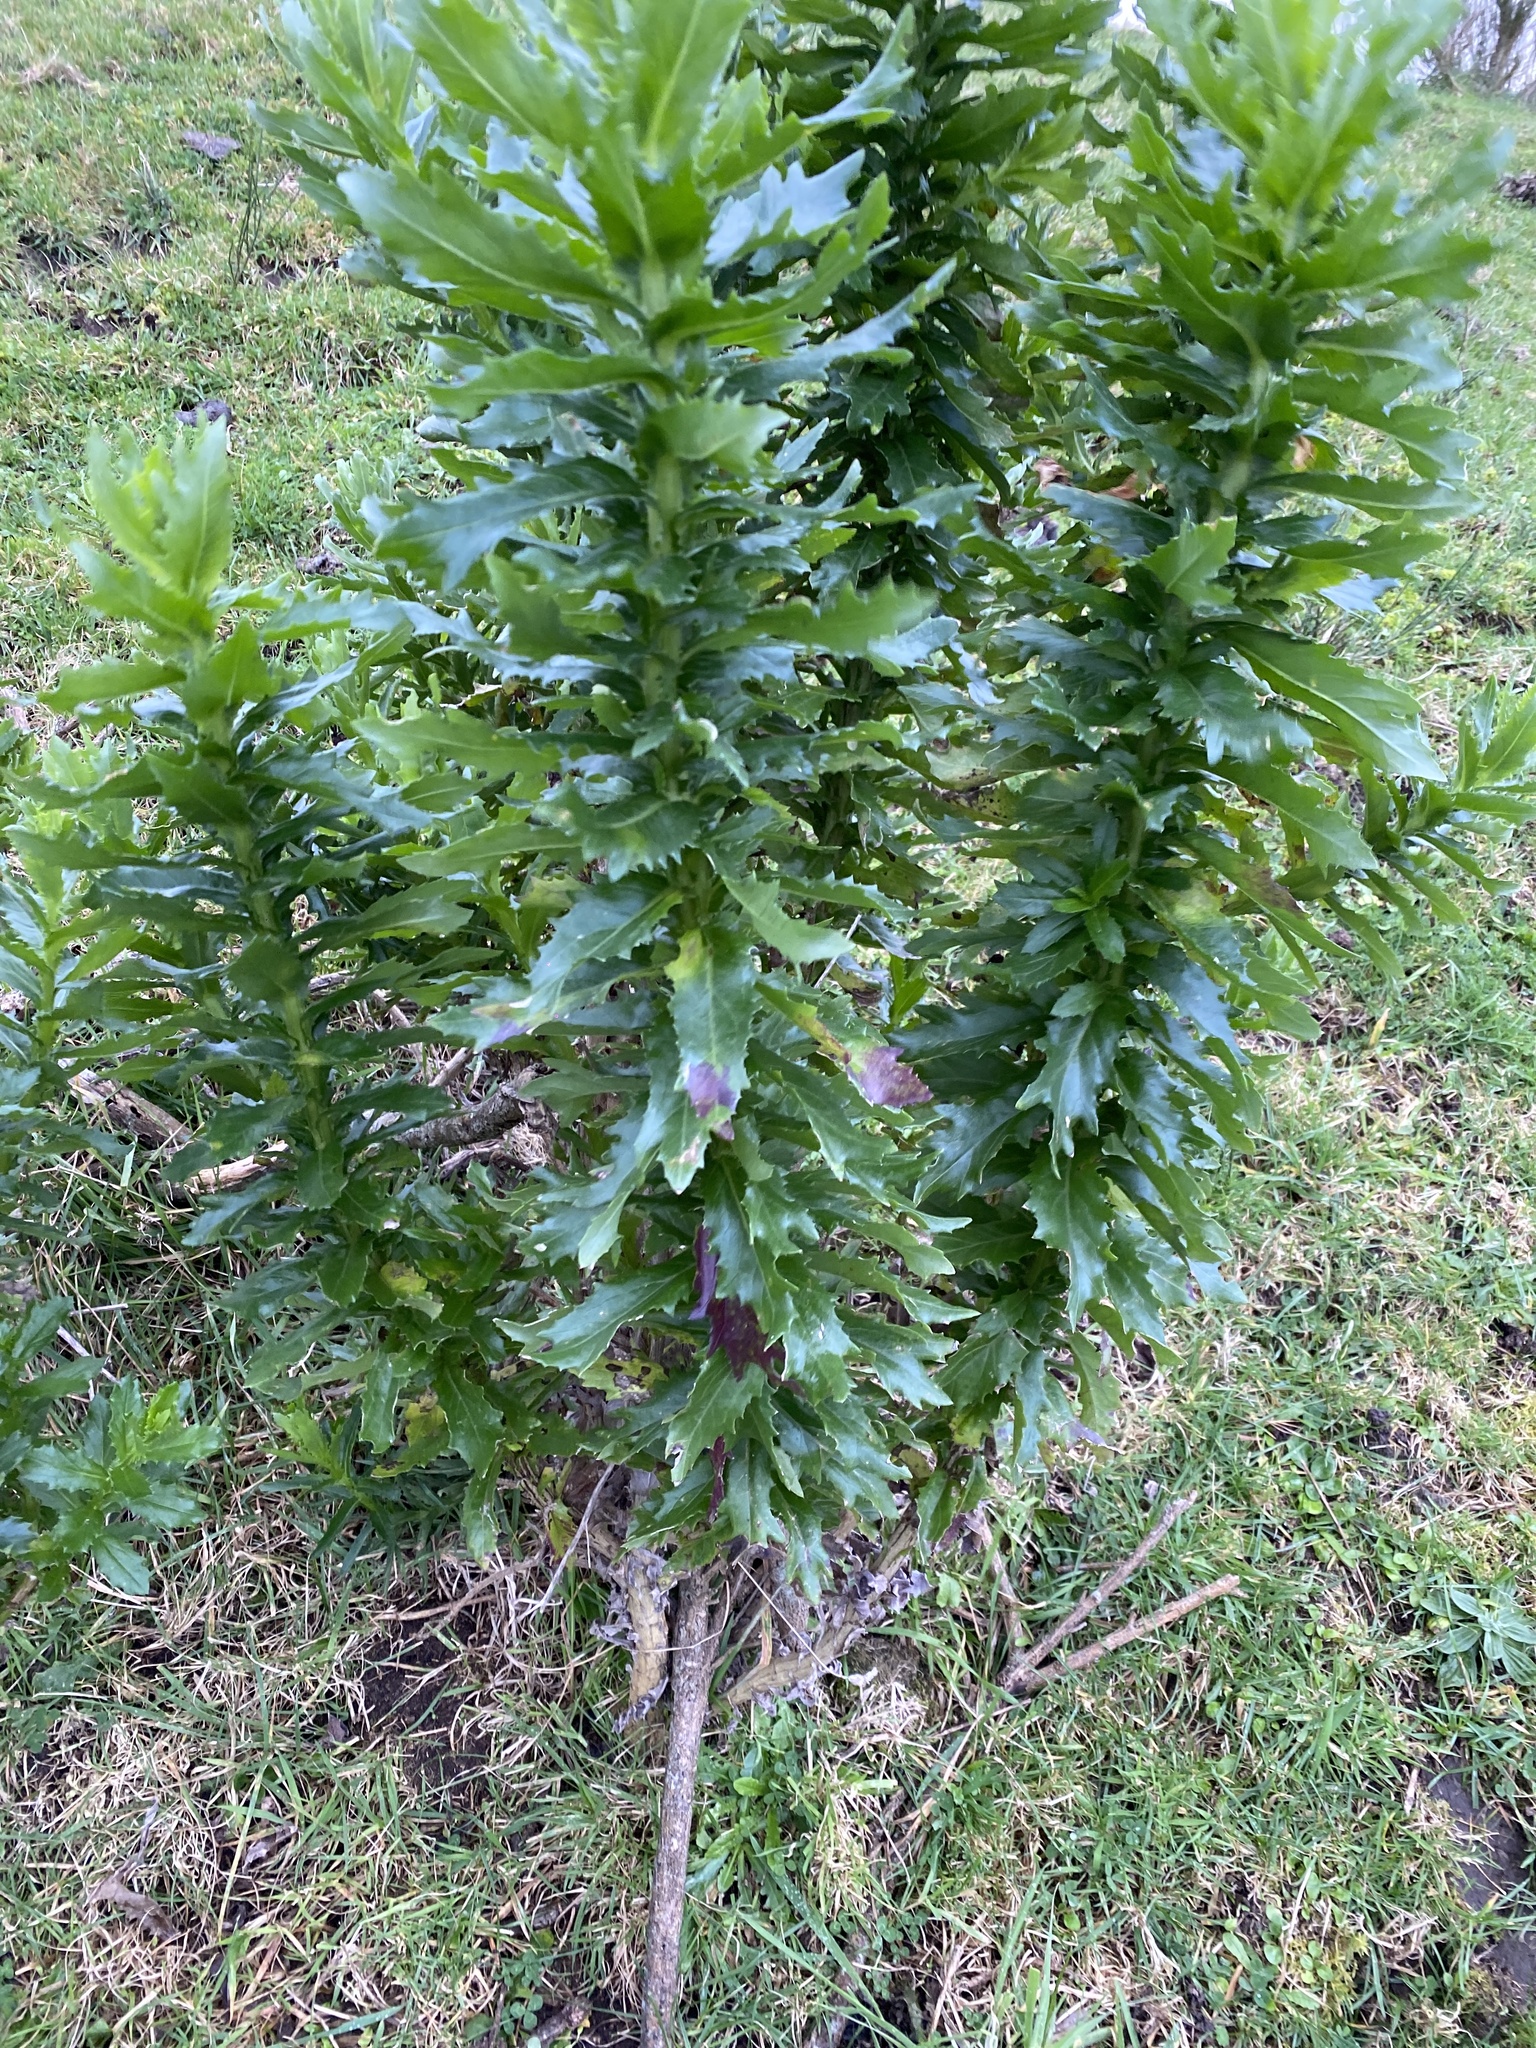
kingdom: Plantae
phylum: Tracheophyta
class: Magnoliopsida
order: Asterales
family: Asteraceae
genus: Senecio
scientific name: Senecio glastifolius
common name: Woad-leaved ragwort
